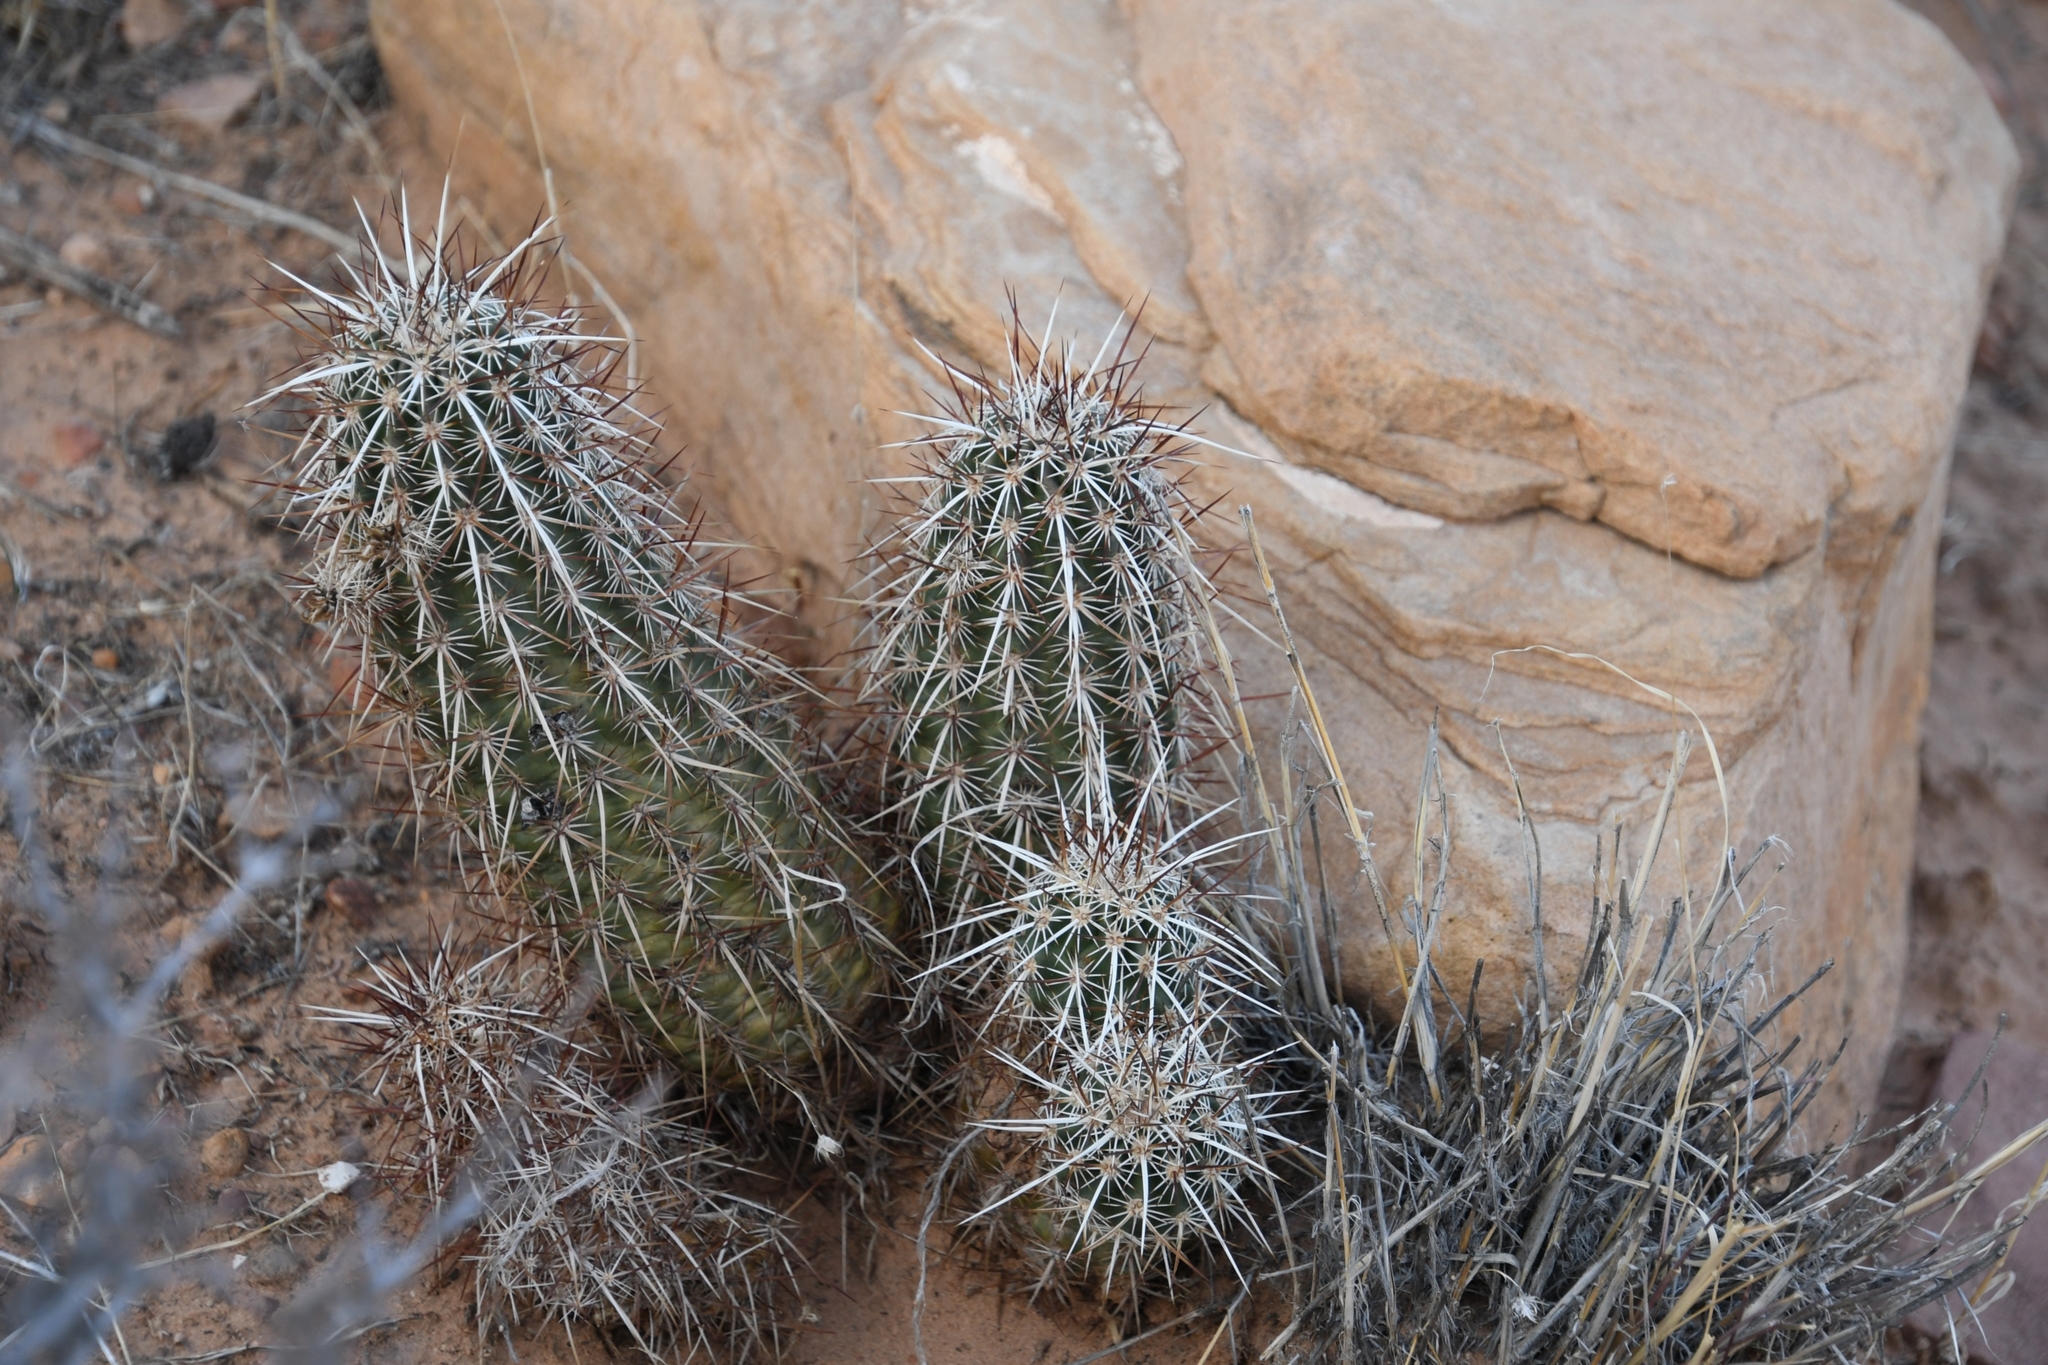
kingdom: Plantae
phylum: Tracheophyta
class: Magnoliopsida
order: Caryophyllales
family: Cactaceae
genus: Echinocereus
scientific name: Echinocereus engelmannii
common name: Engelmann's hedgehog cactus
